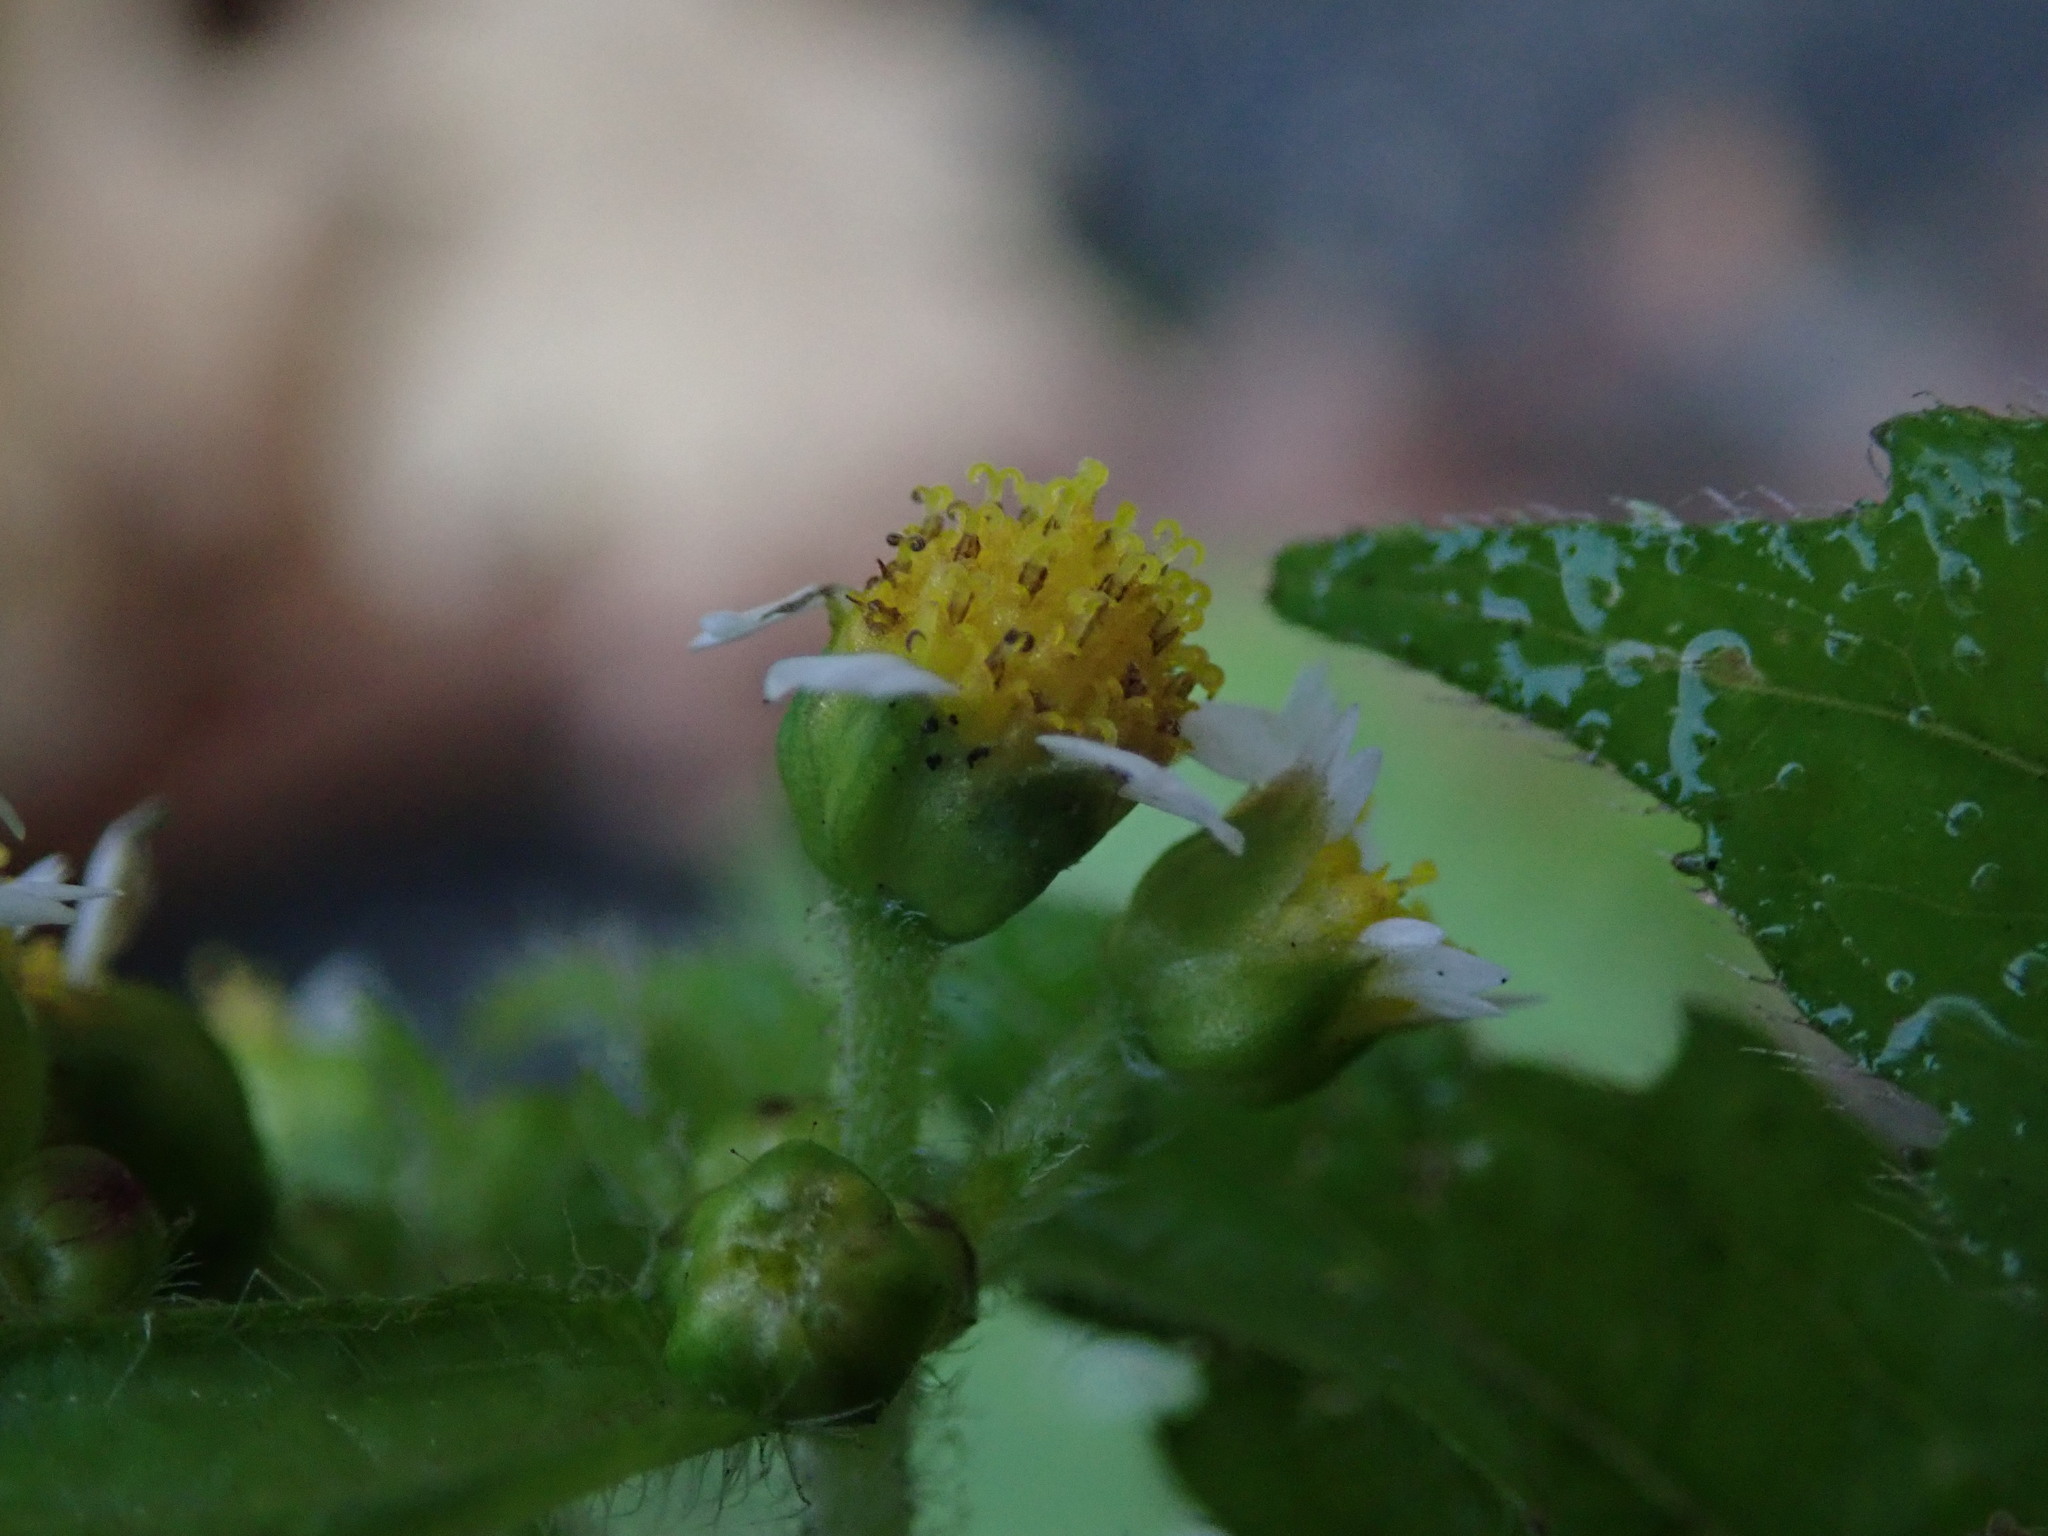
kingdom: Plantae
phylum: Tracheophyta
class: Magnoliopsida
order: Asterales
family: Asteraceae
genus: Galinsoga
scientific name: Galinsoga quadriradiata
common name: Shaggy soldier
